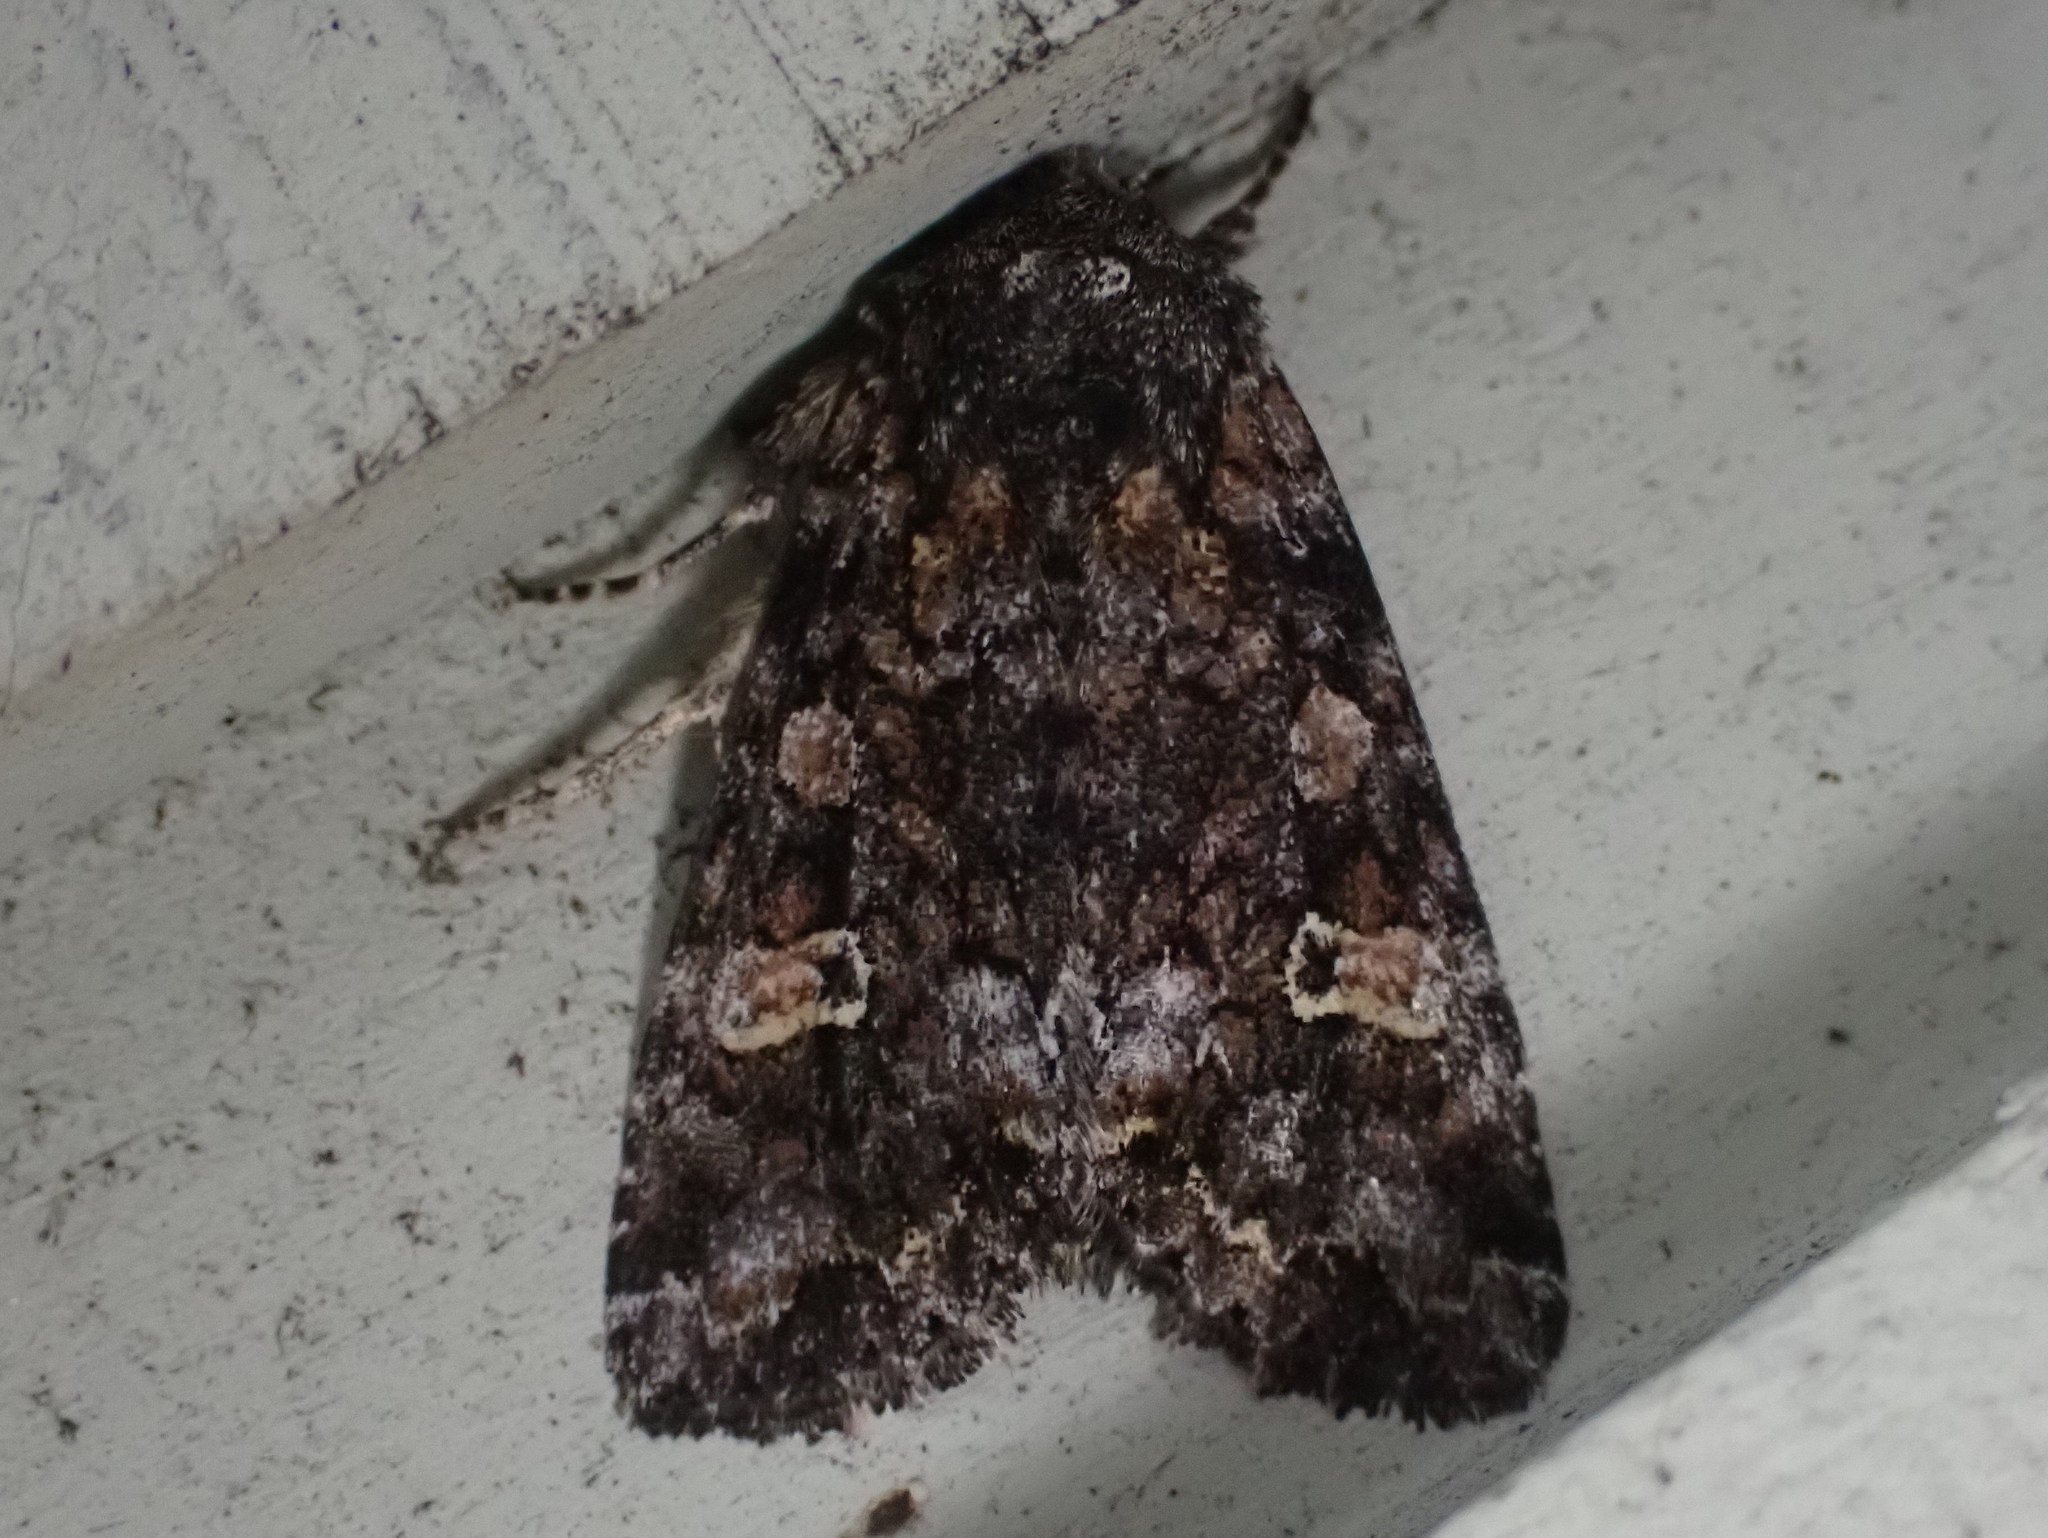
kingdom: Animalia
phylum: Arthropoda
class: Insecta
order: Lepidoptera
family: Noctuidae
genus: Spiramater
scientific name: Spiramater lutra
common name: Otter spiramater moth
